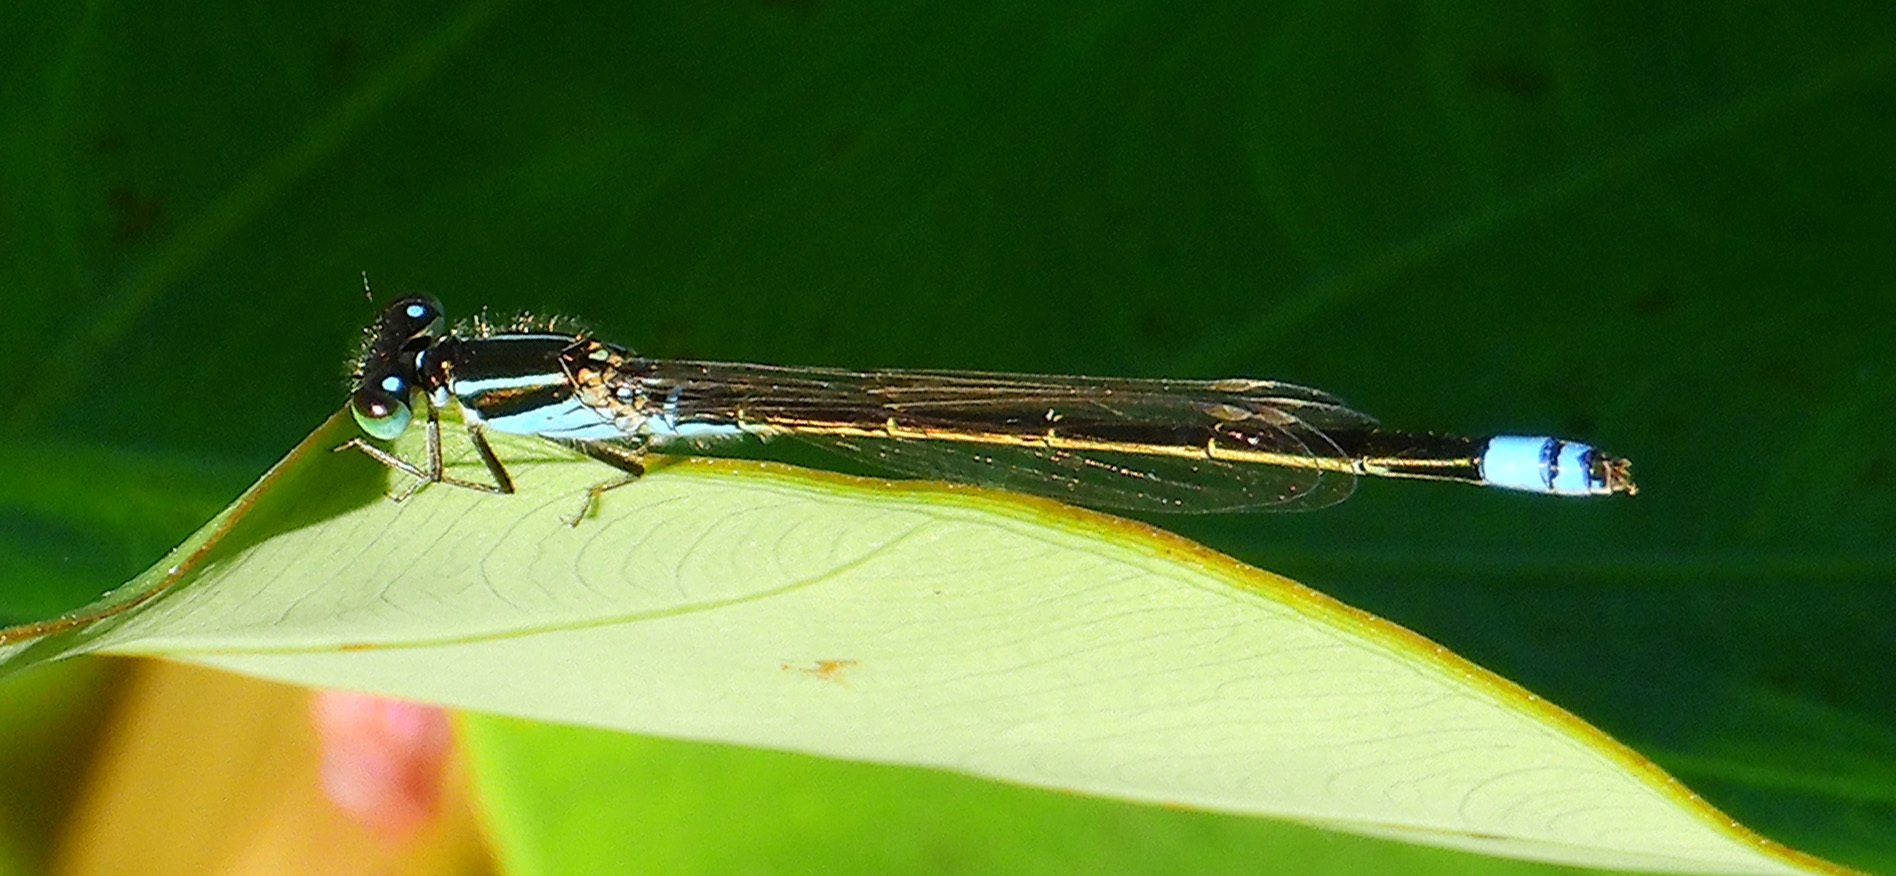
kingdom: Animalia
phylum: Arthropoda
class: Insecta
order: Odonata
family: Coenagrionidae
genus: Ischnura
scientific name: Ischnura ramburii
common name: Rambur's forktail
